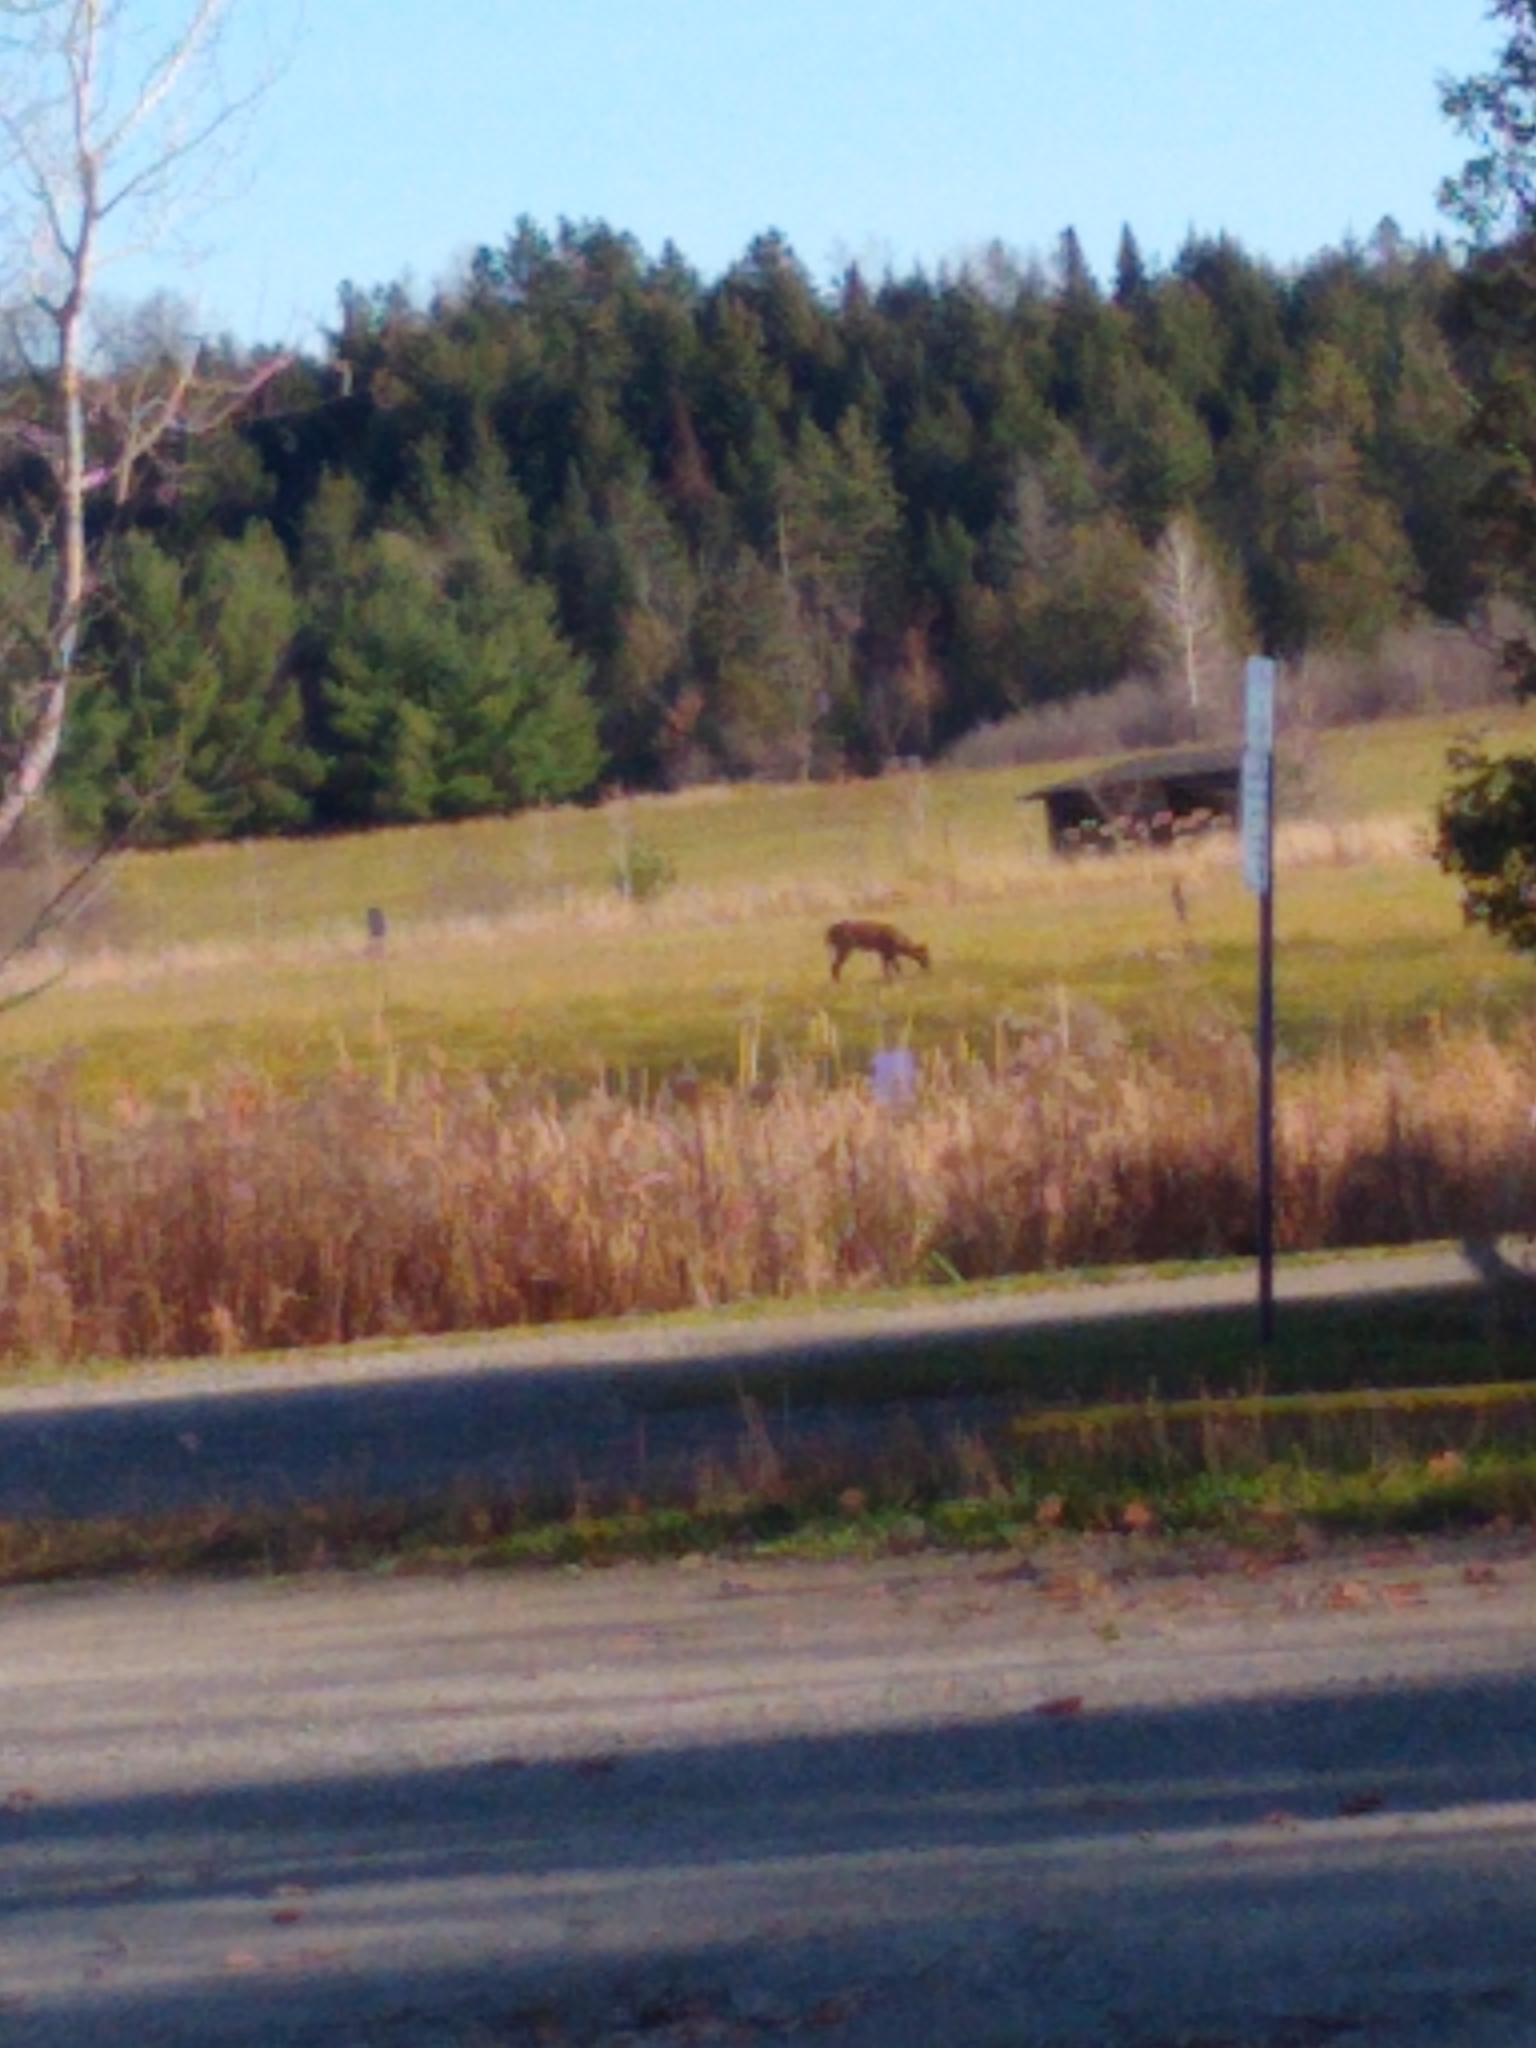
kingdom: Animalia
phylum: Chordata
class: Mammalia
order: Artiodactyla
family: Cervidae
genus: Odocoileus
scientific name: Odocoileus virginianus
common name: White-tailed deer
